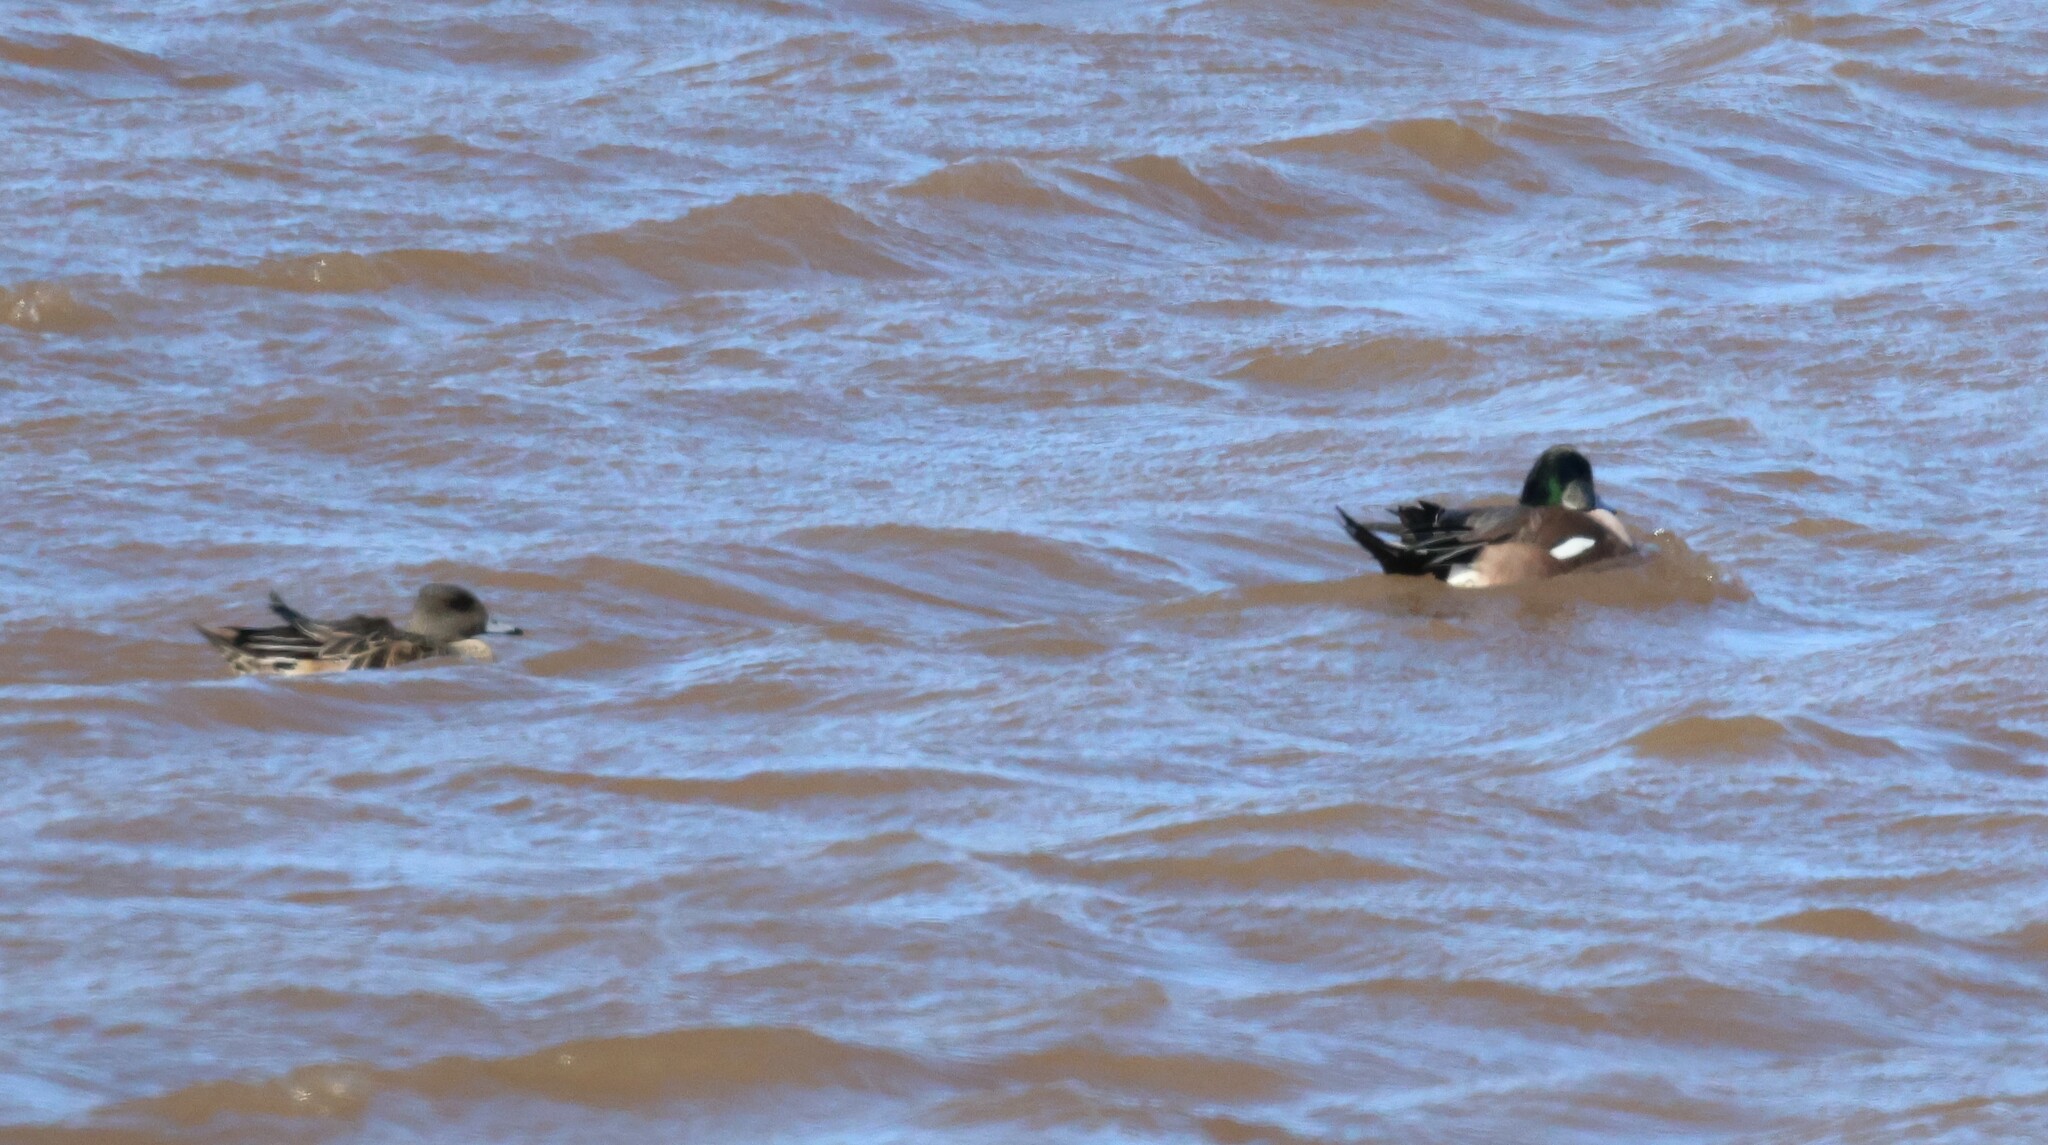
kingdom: Animalia
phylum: Chordata
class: Aves
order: Anseriformes
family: Anatidae
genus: Mareca
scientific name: Mareca americana
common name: American wigeon
